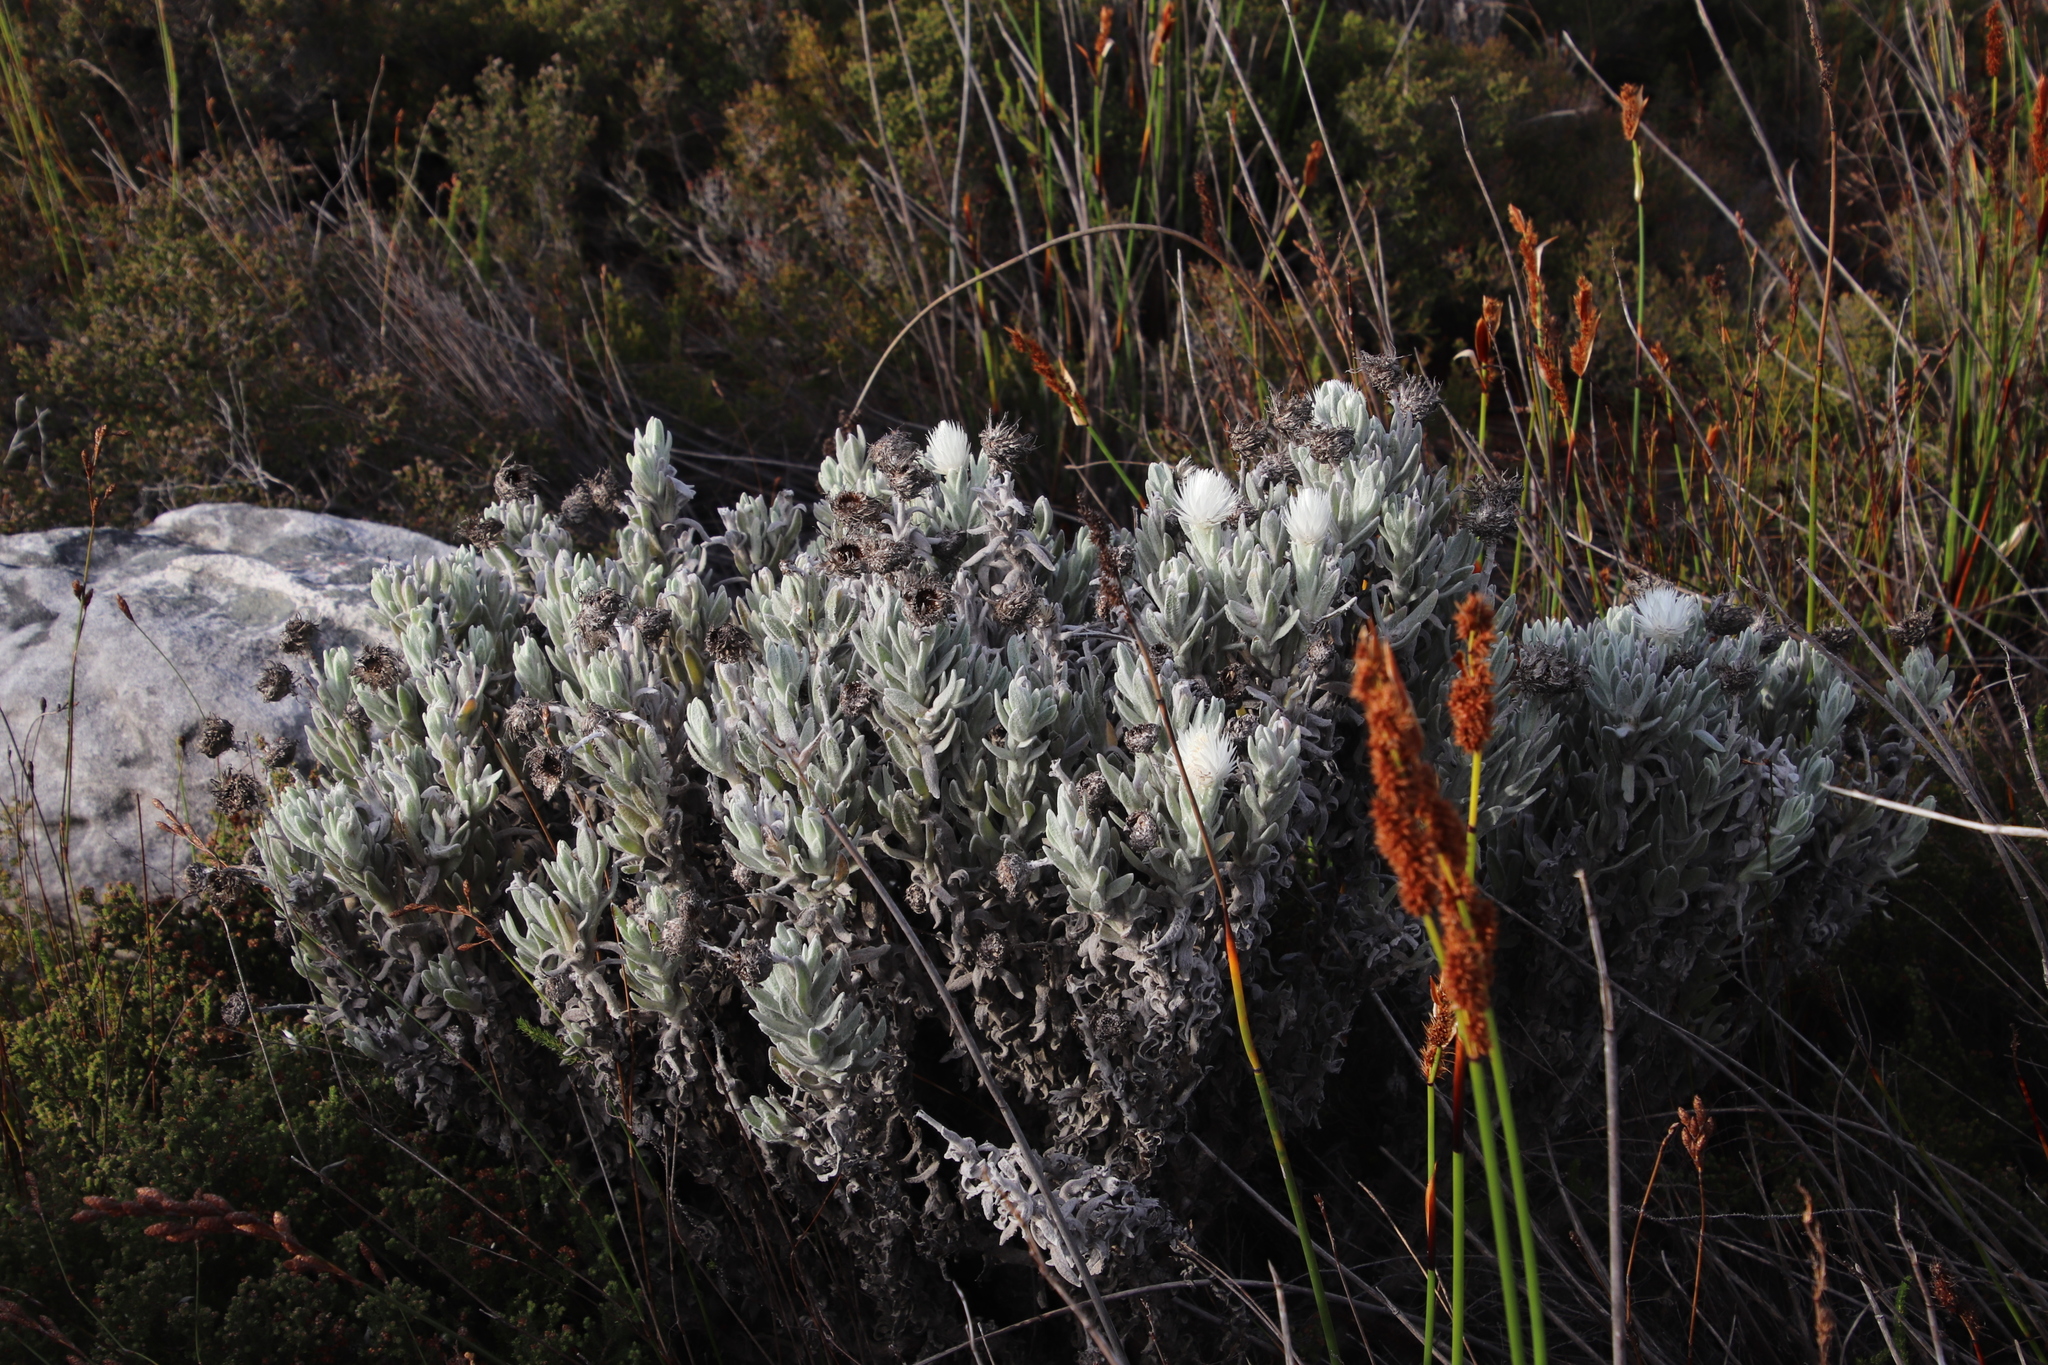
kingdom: Plantae
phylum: Tracheophyta
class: Magnoliopsida
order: Asterales
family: Asteraceae
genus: Syncarpha
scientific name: Syncarpha vestita
